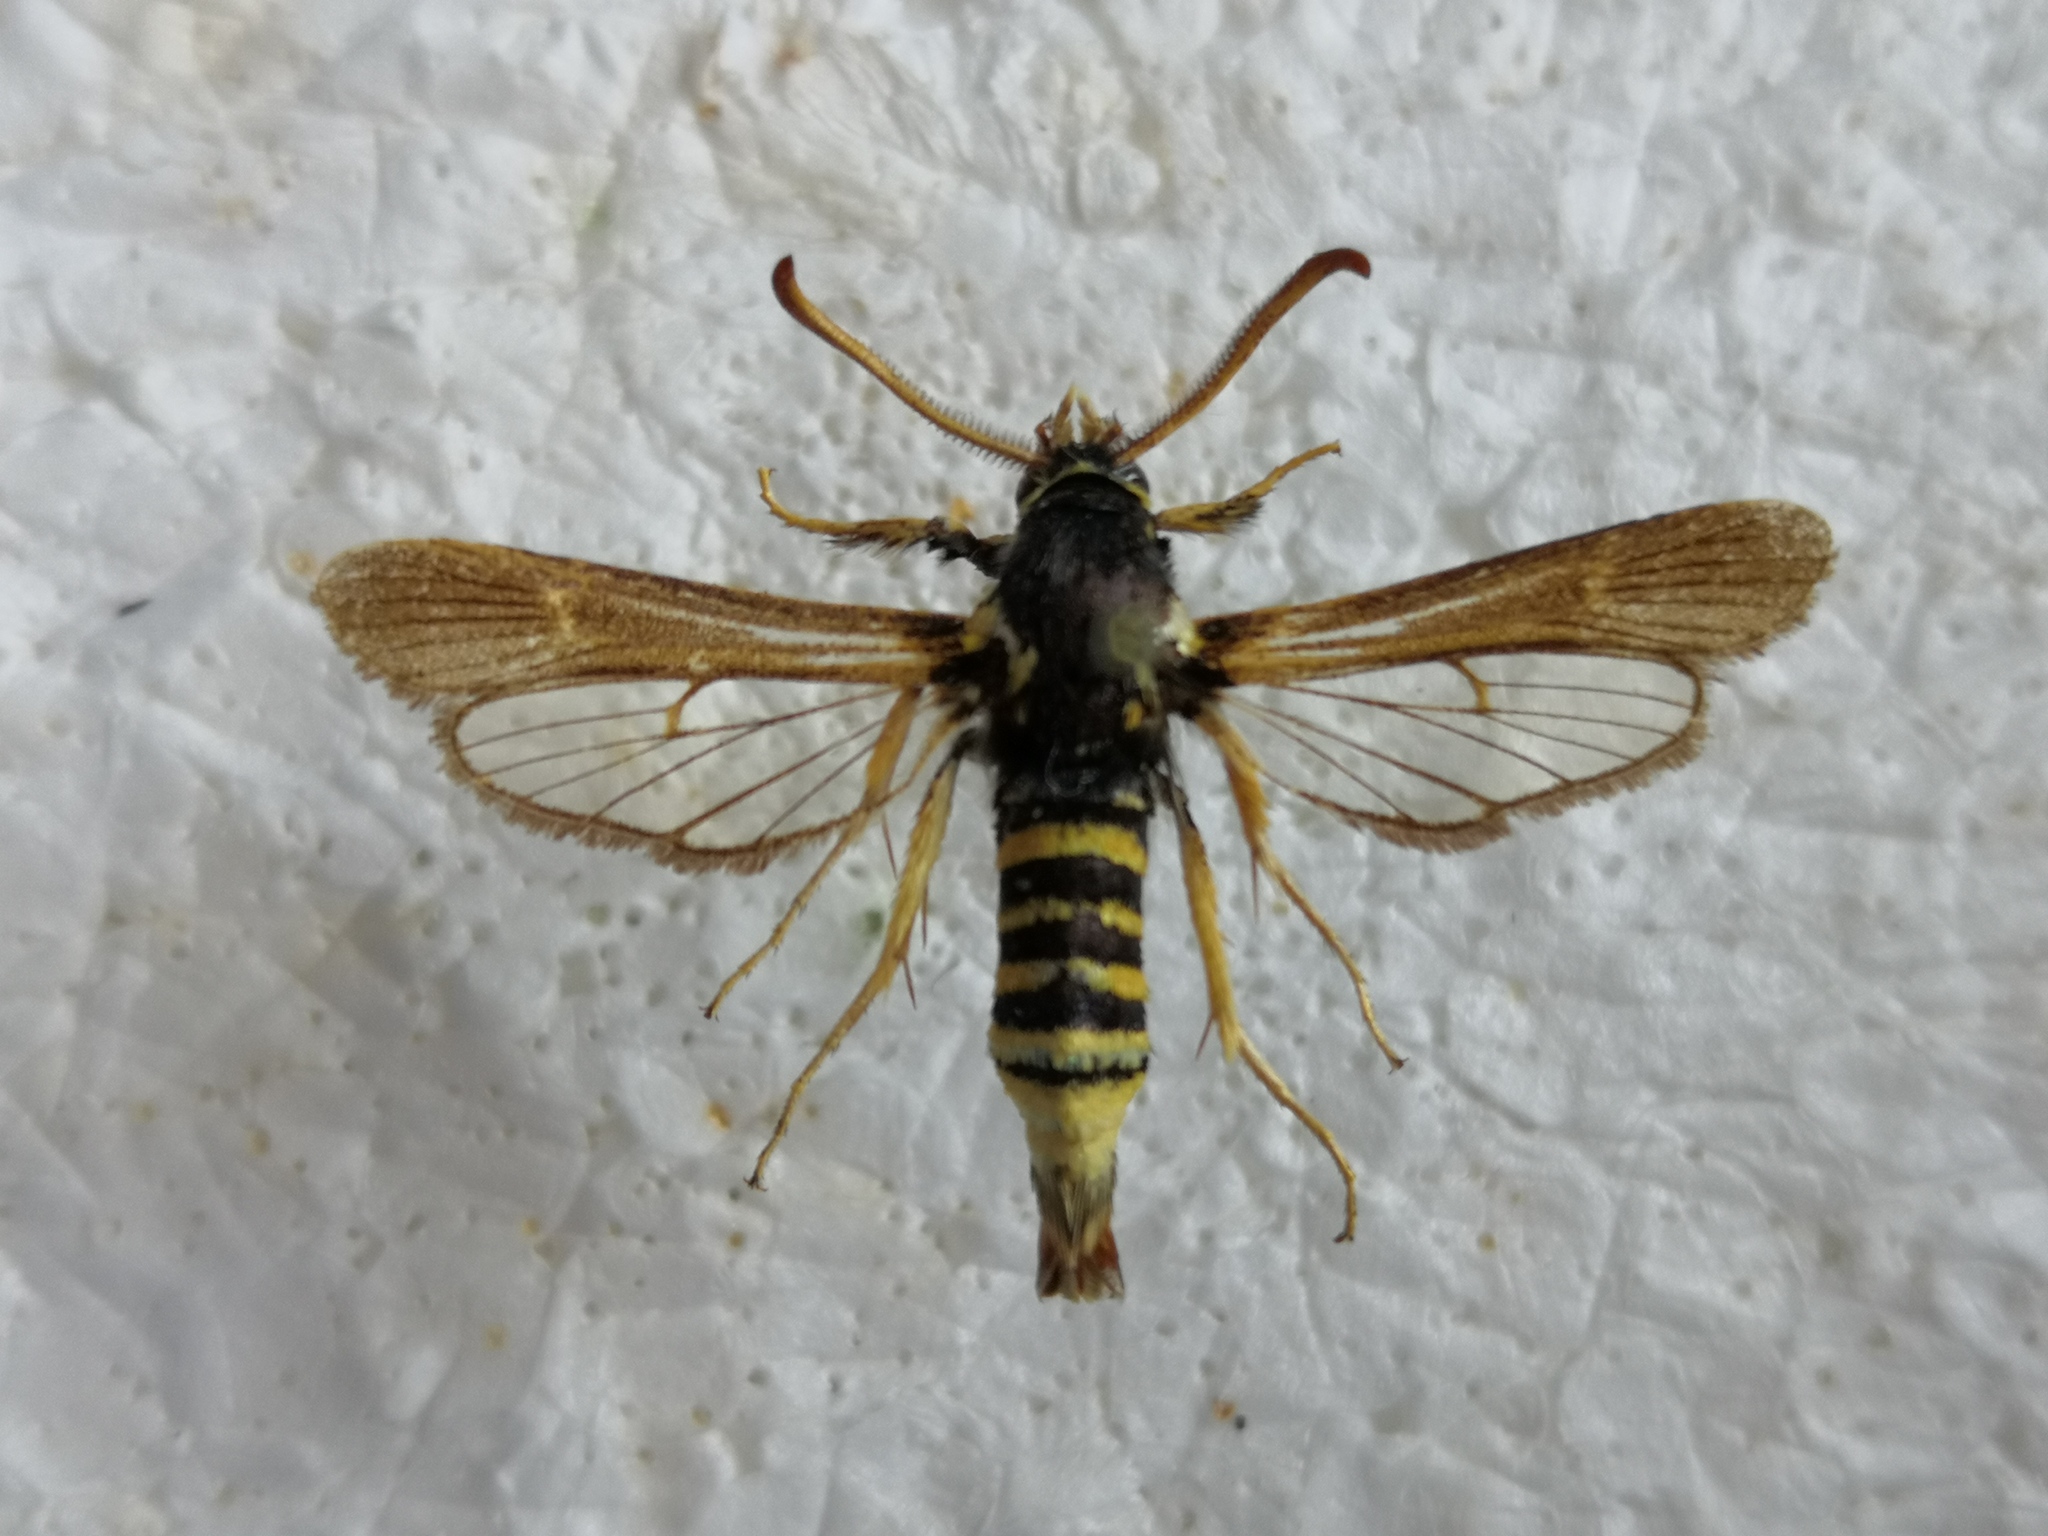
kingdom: Animalia
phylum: Arthropoda
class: Insecta
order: Lepidoptera
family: Sesiidae
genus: Paranthrene
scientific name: Paranthrene tabaniformis
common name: Dusky clearwing
